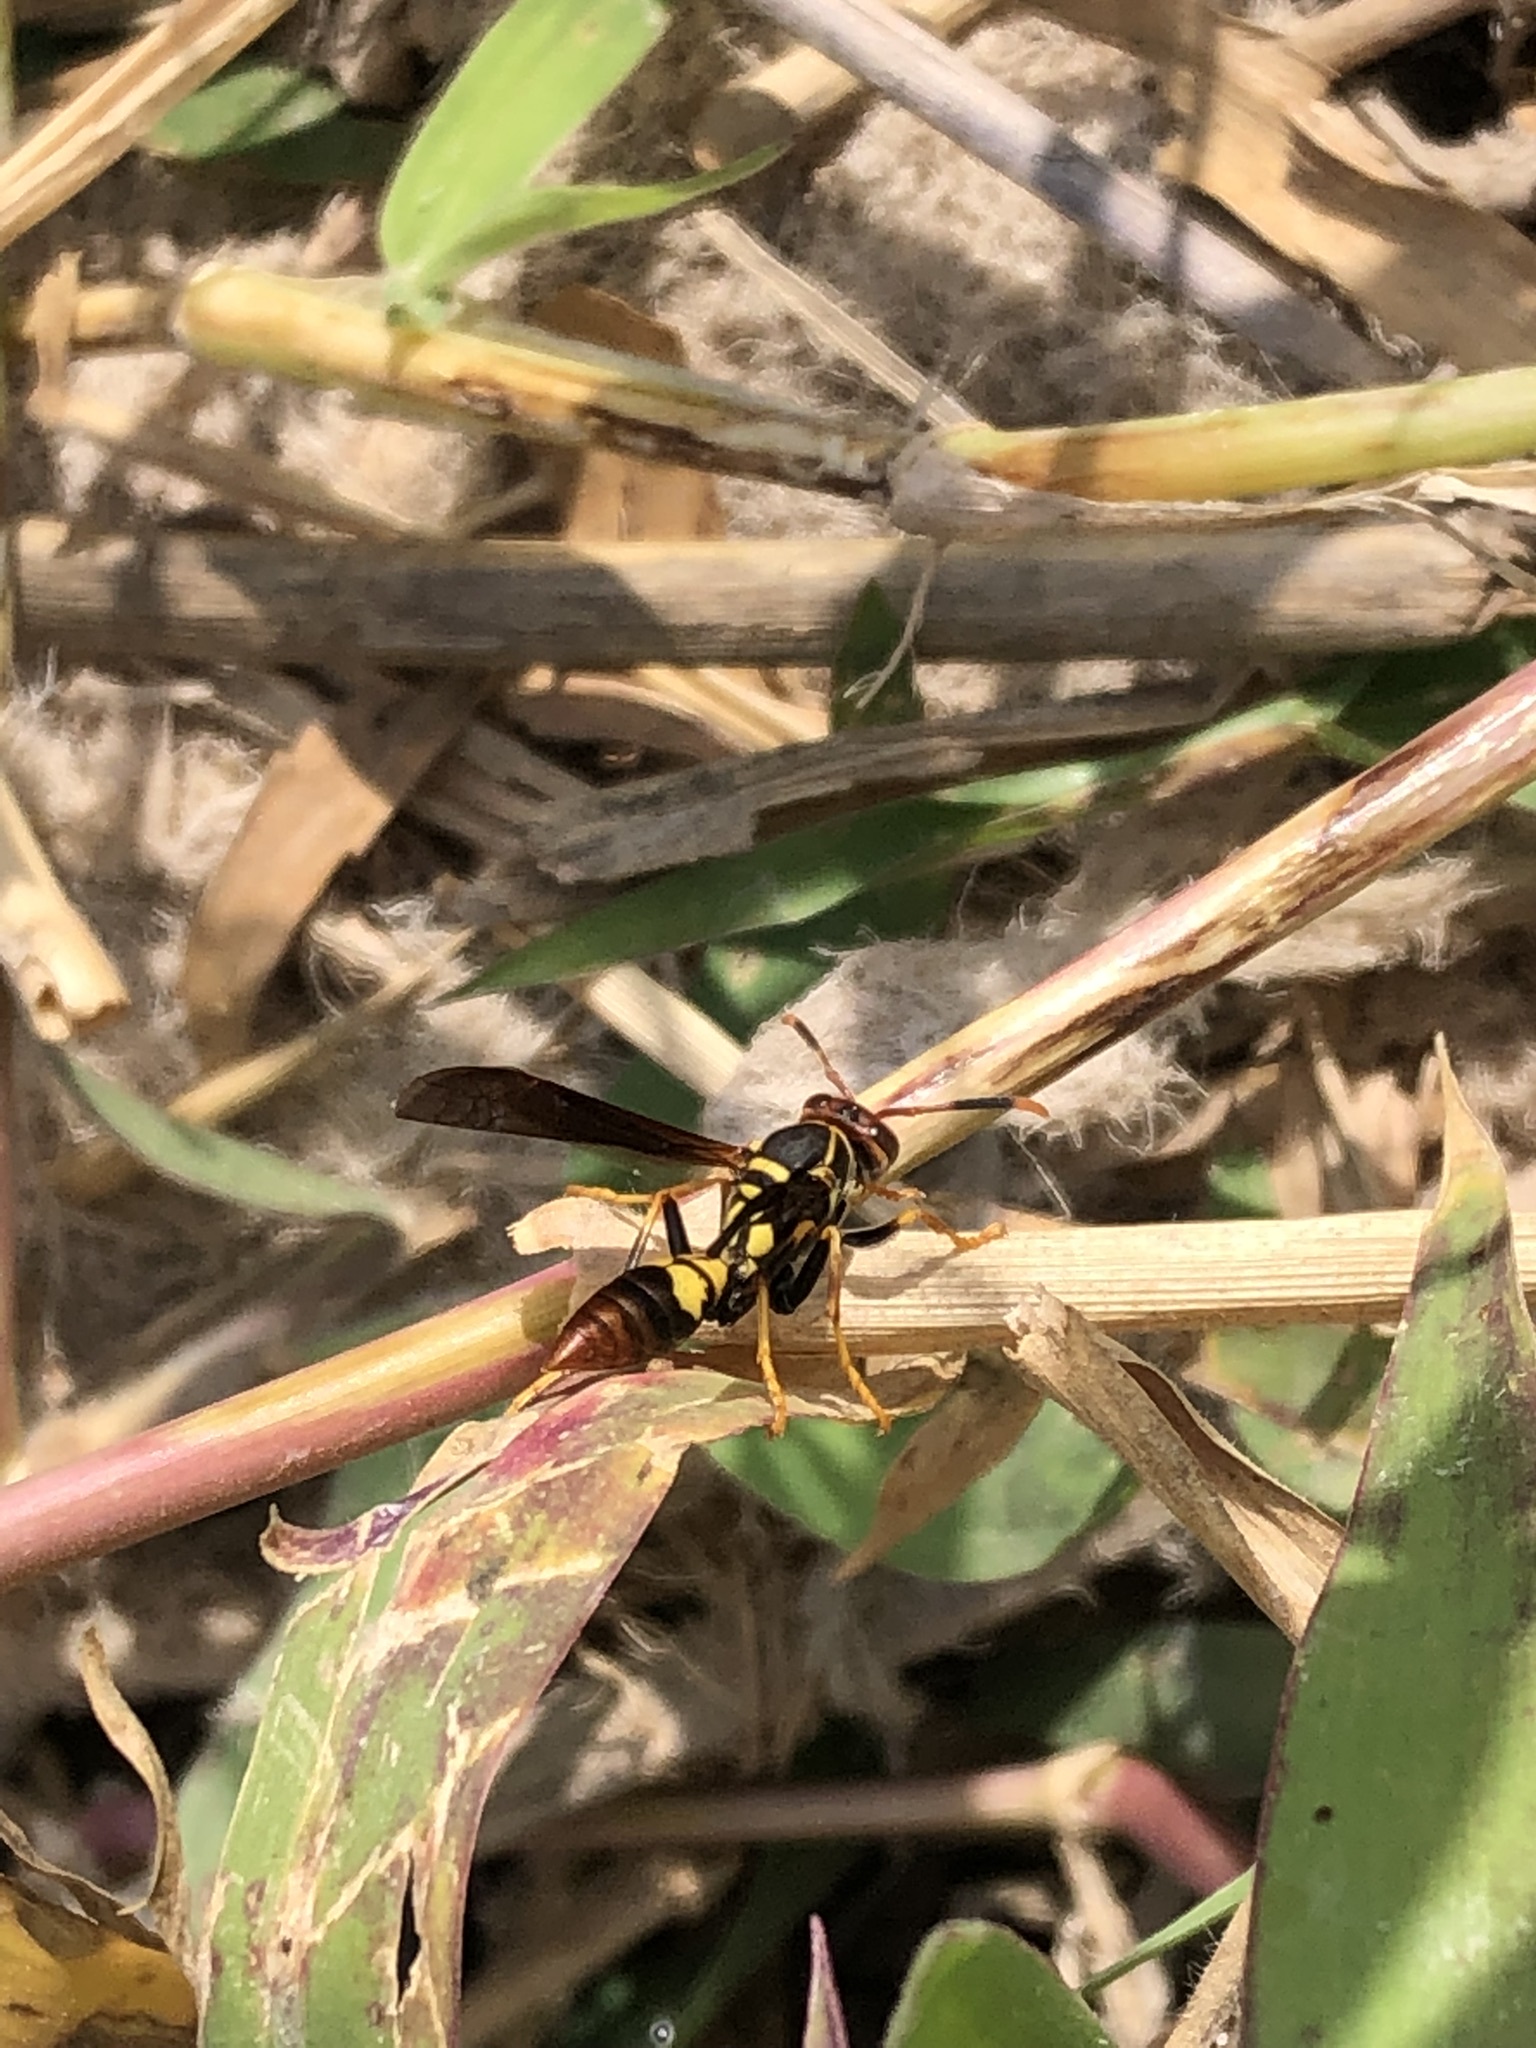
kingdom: Animalia
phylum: Arthropoda
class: Insecta
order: Hymenoptera
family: Eumenidae
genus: Polistes
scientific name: Polistes peruvianus
